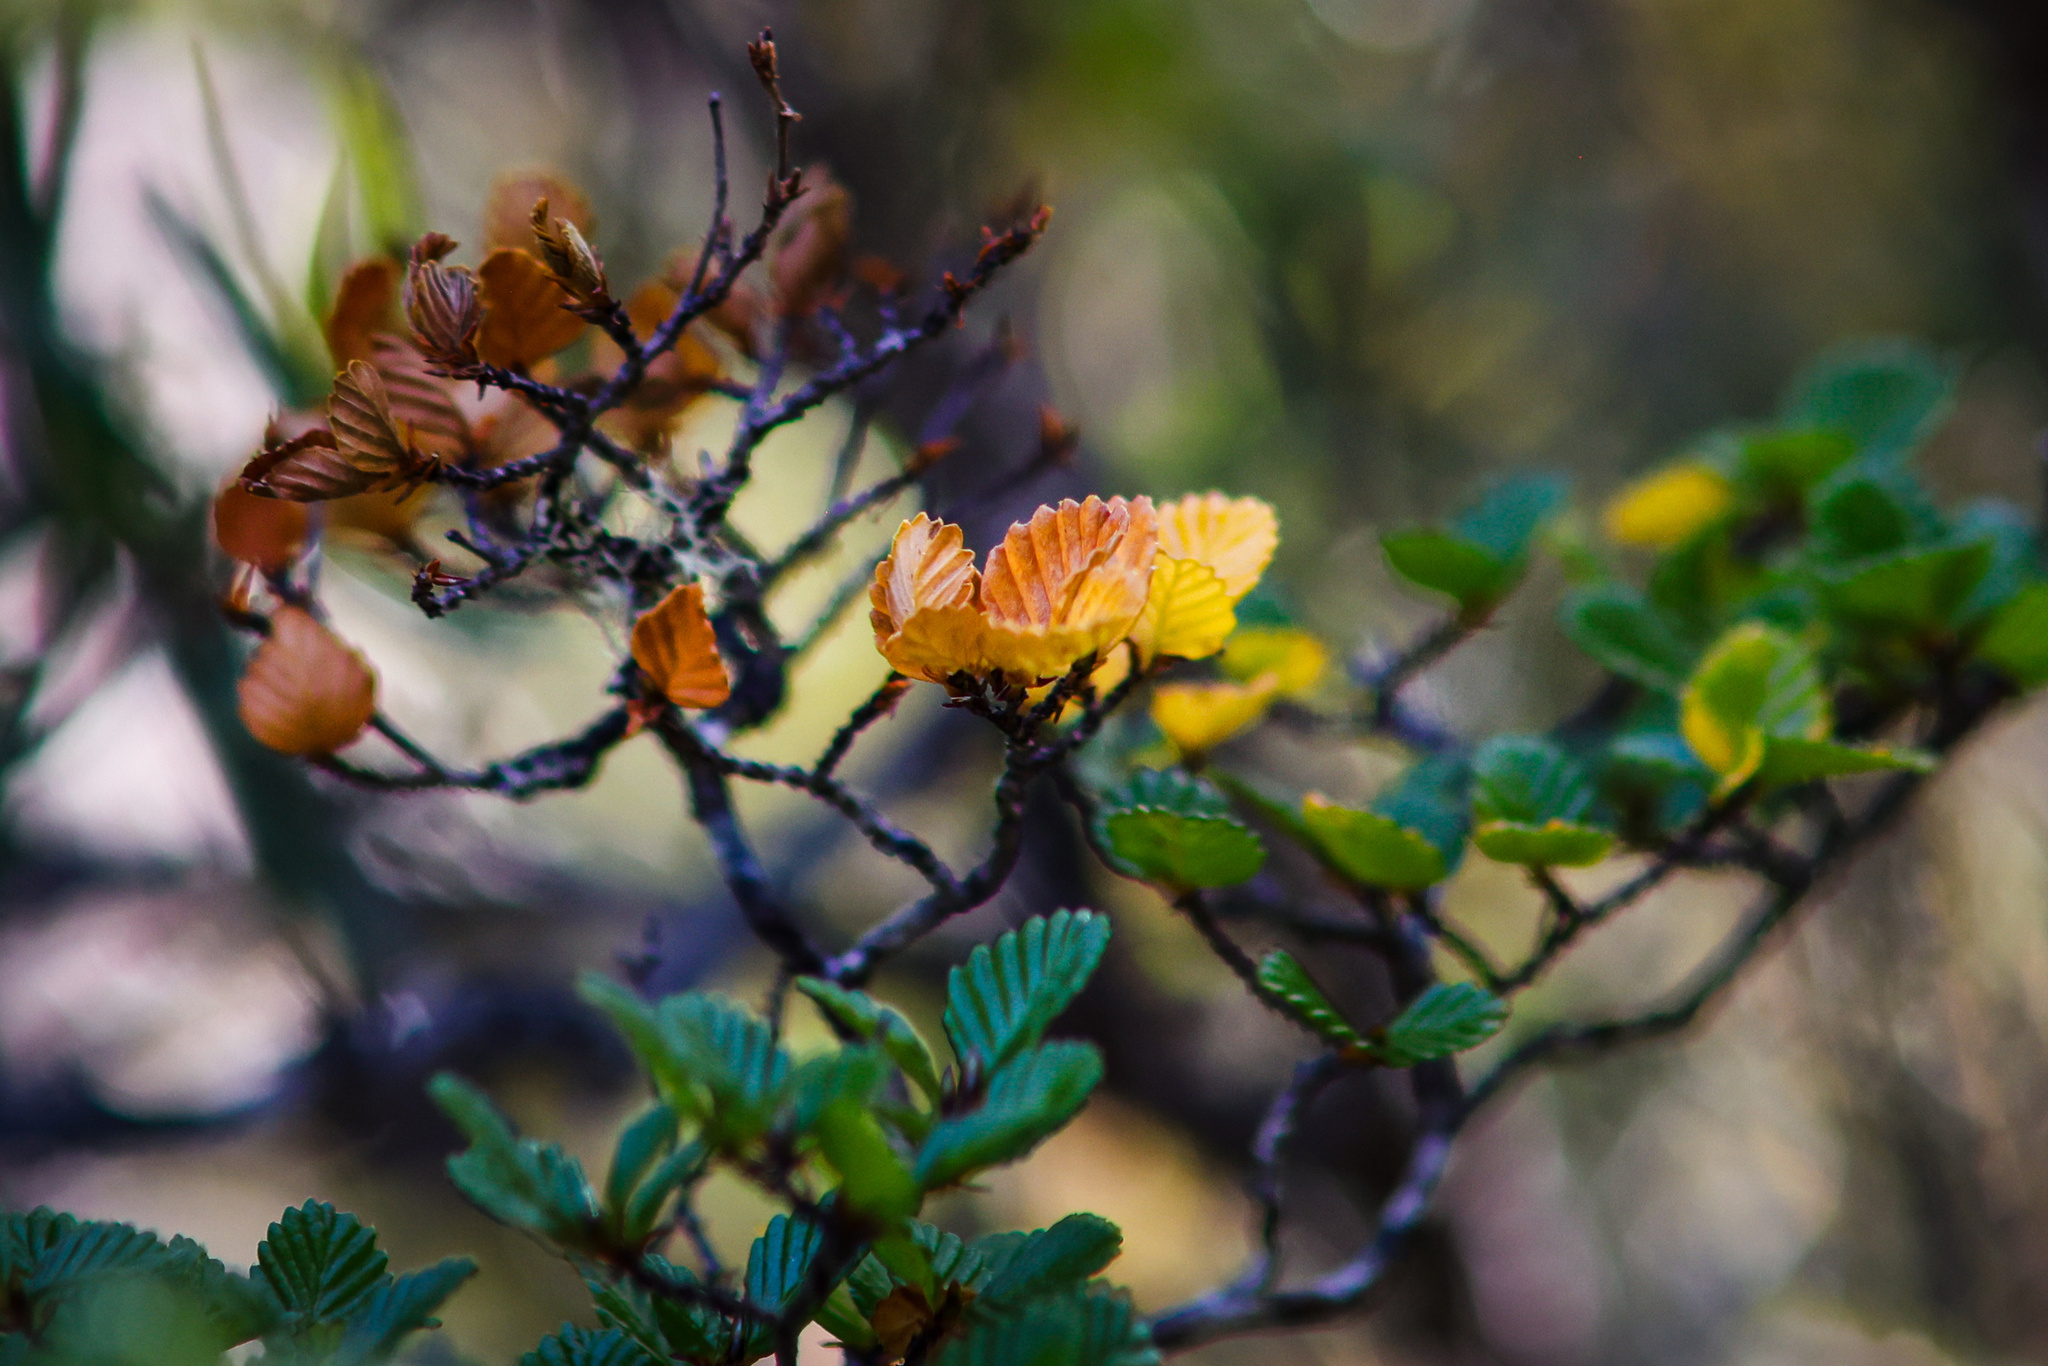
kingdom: Plantae
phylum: Tracheophyta
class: Magnoliopsida
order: Fagales
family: Nothofagaceae
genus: Nothofagus
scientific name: Nothofagus gunnii
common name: Tanglefoot
